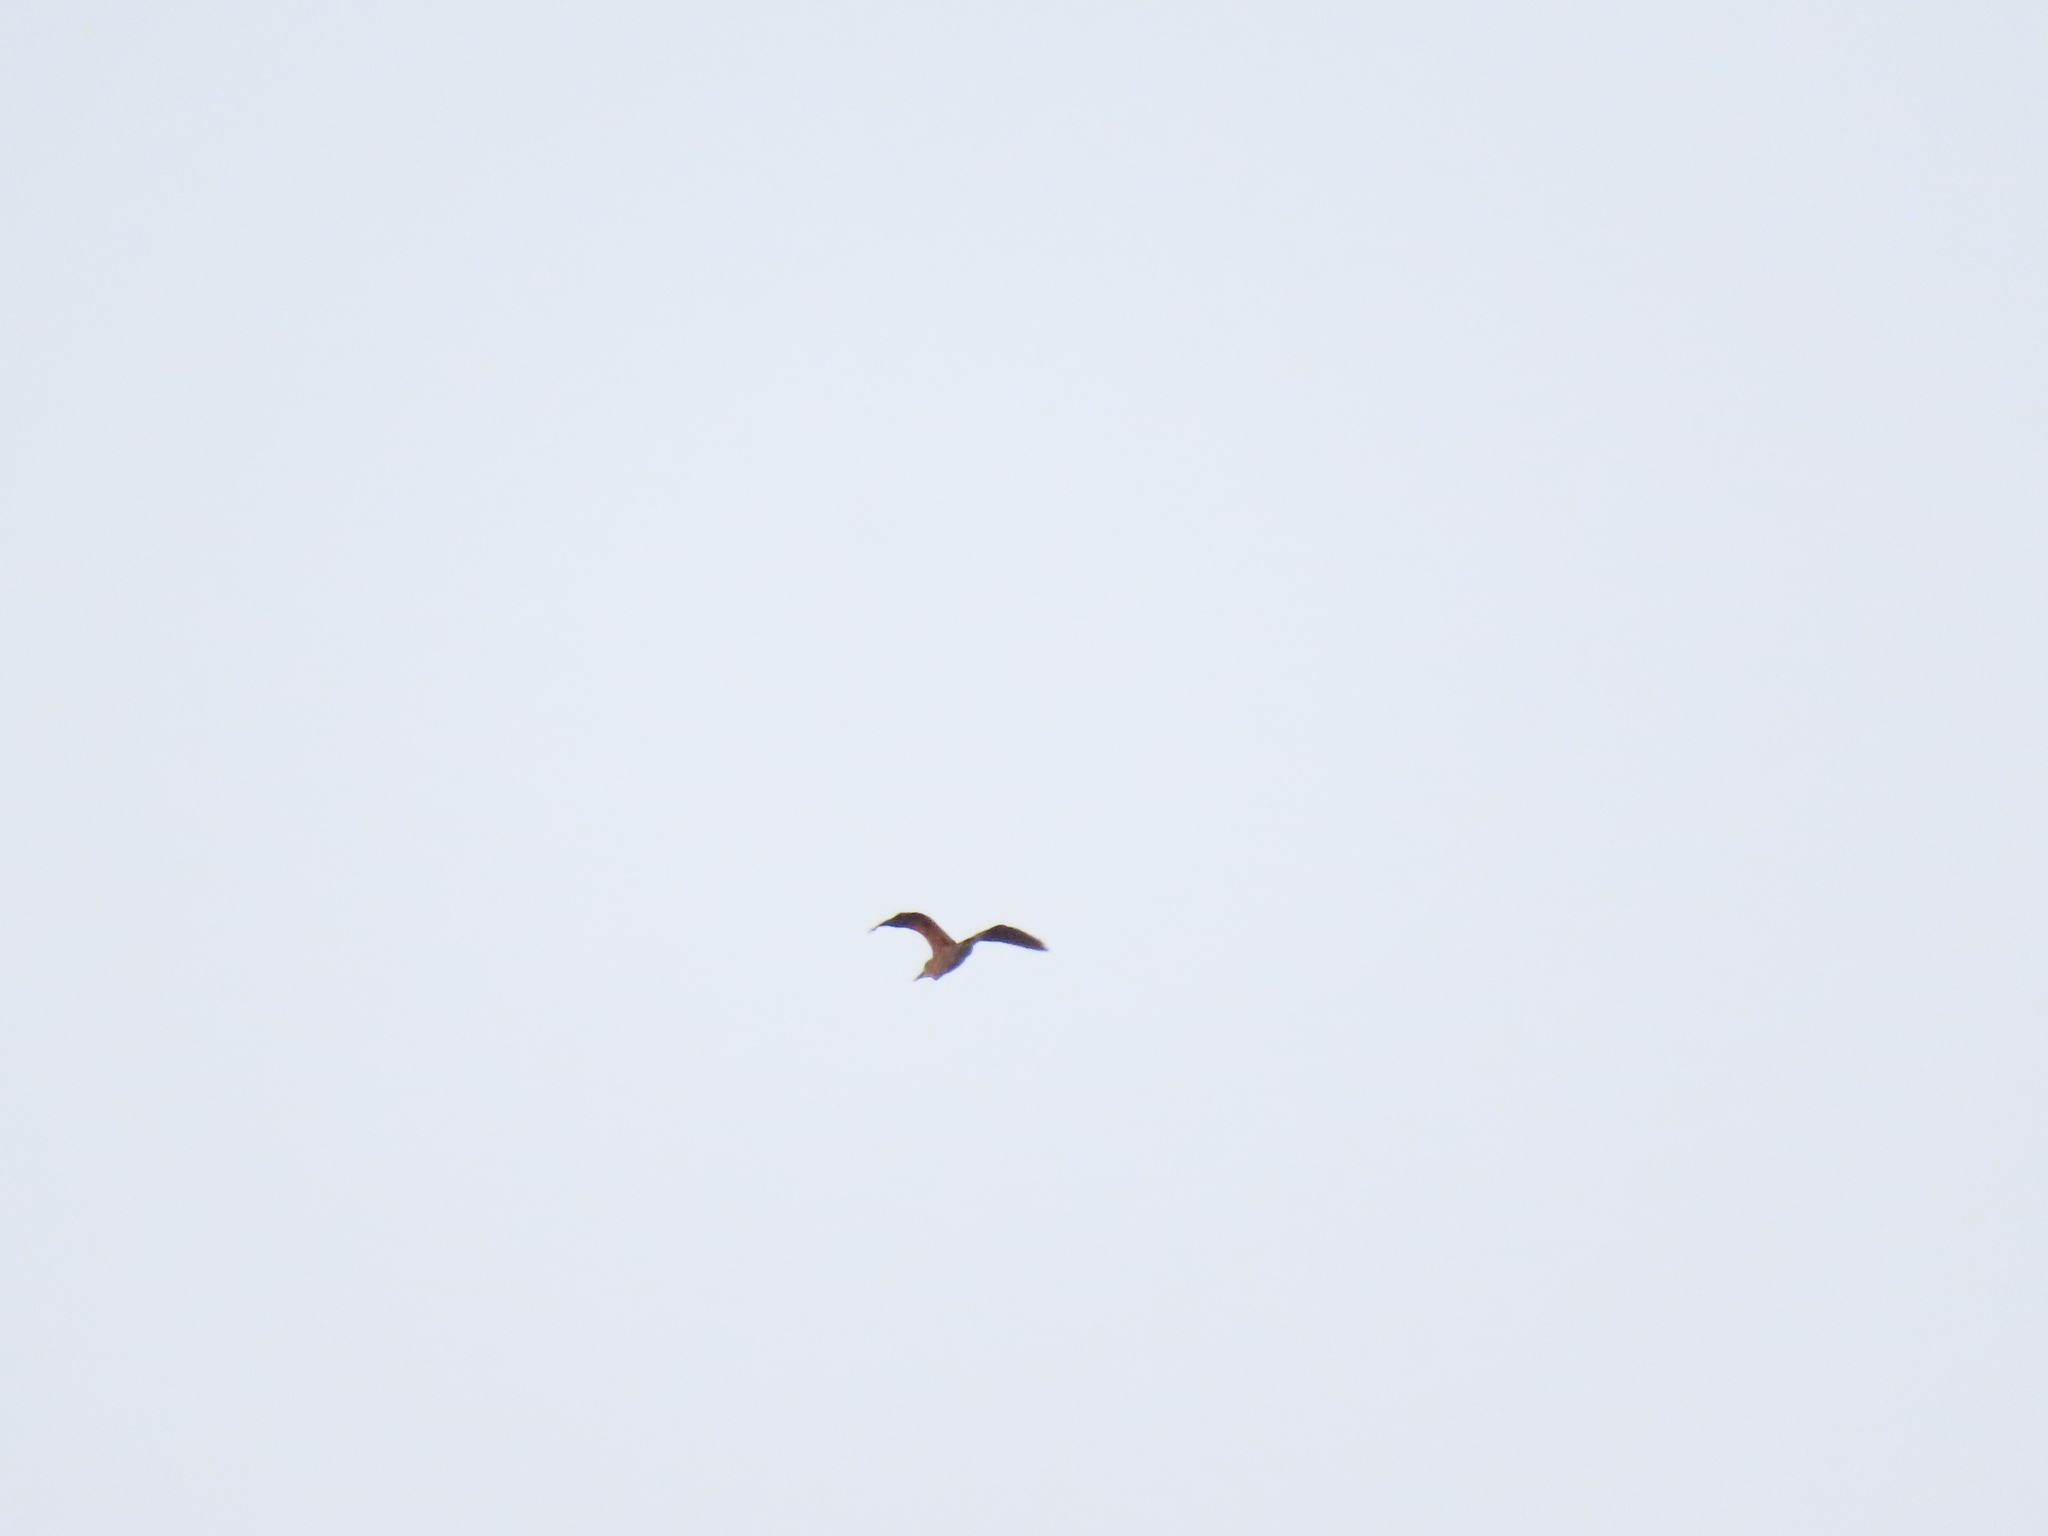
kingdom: Animalia
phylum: Chordata
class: Aves
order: Pelecaniformes
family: Ardeidae
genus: Nycticorax
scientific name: Nycticorax nycticorax
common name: Black-crowned night heron
